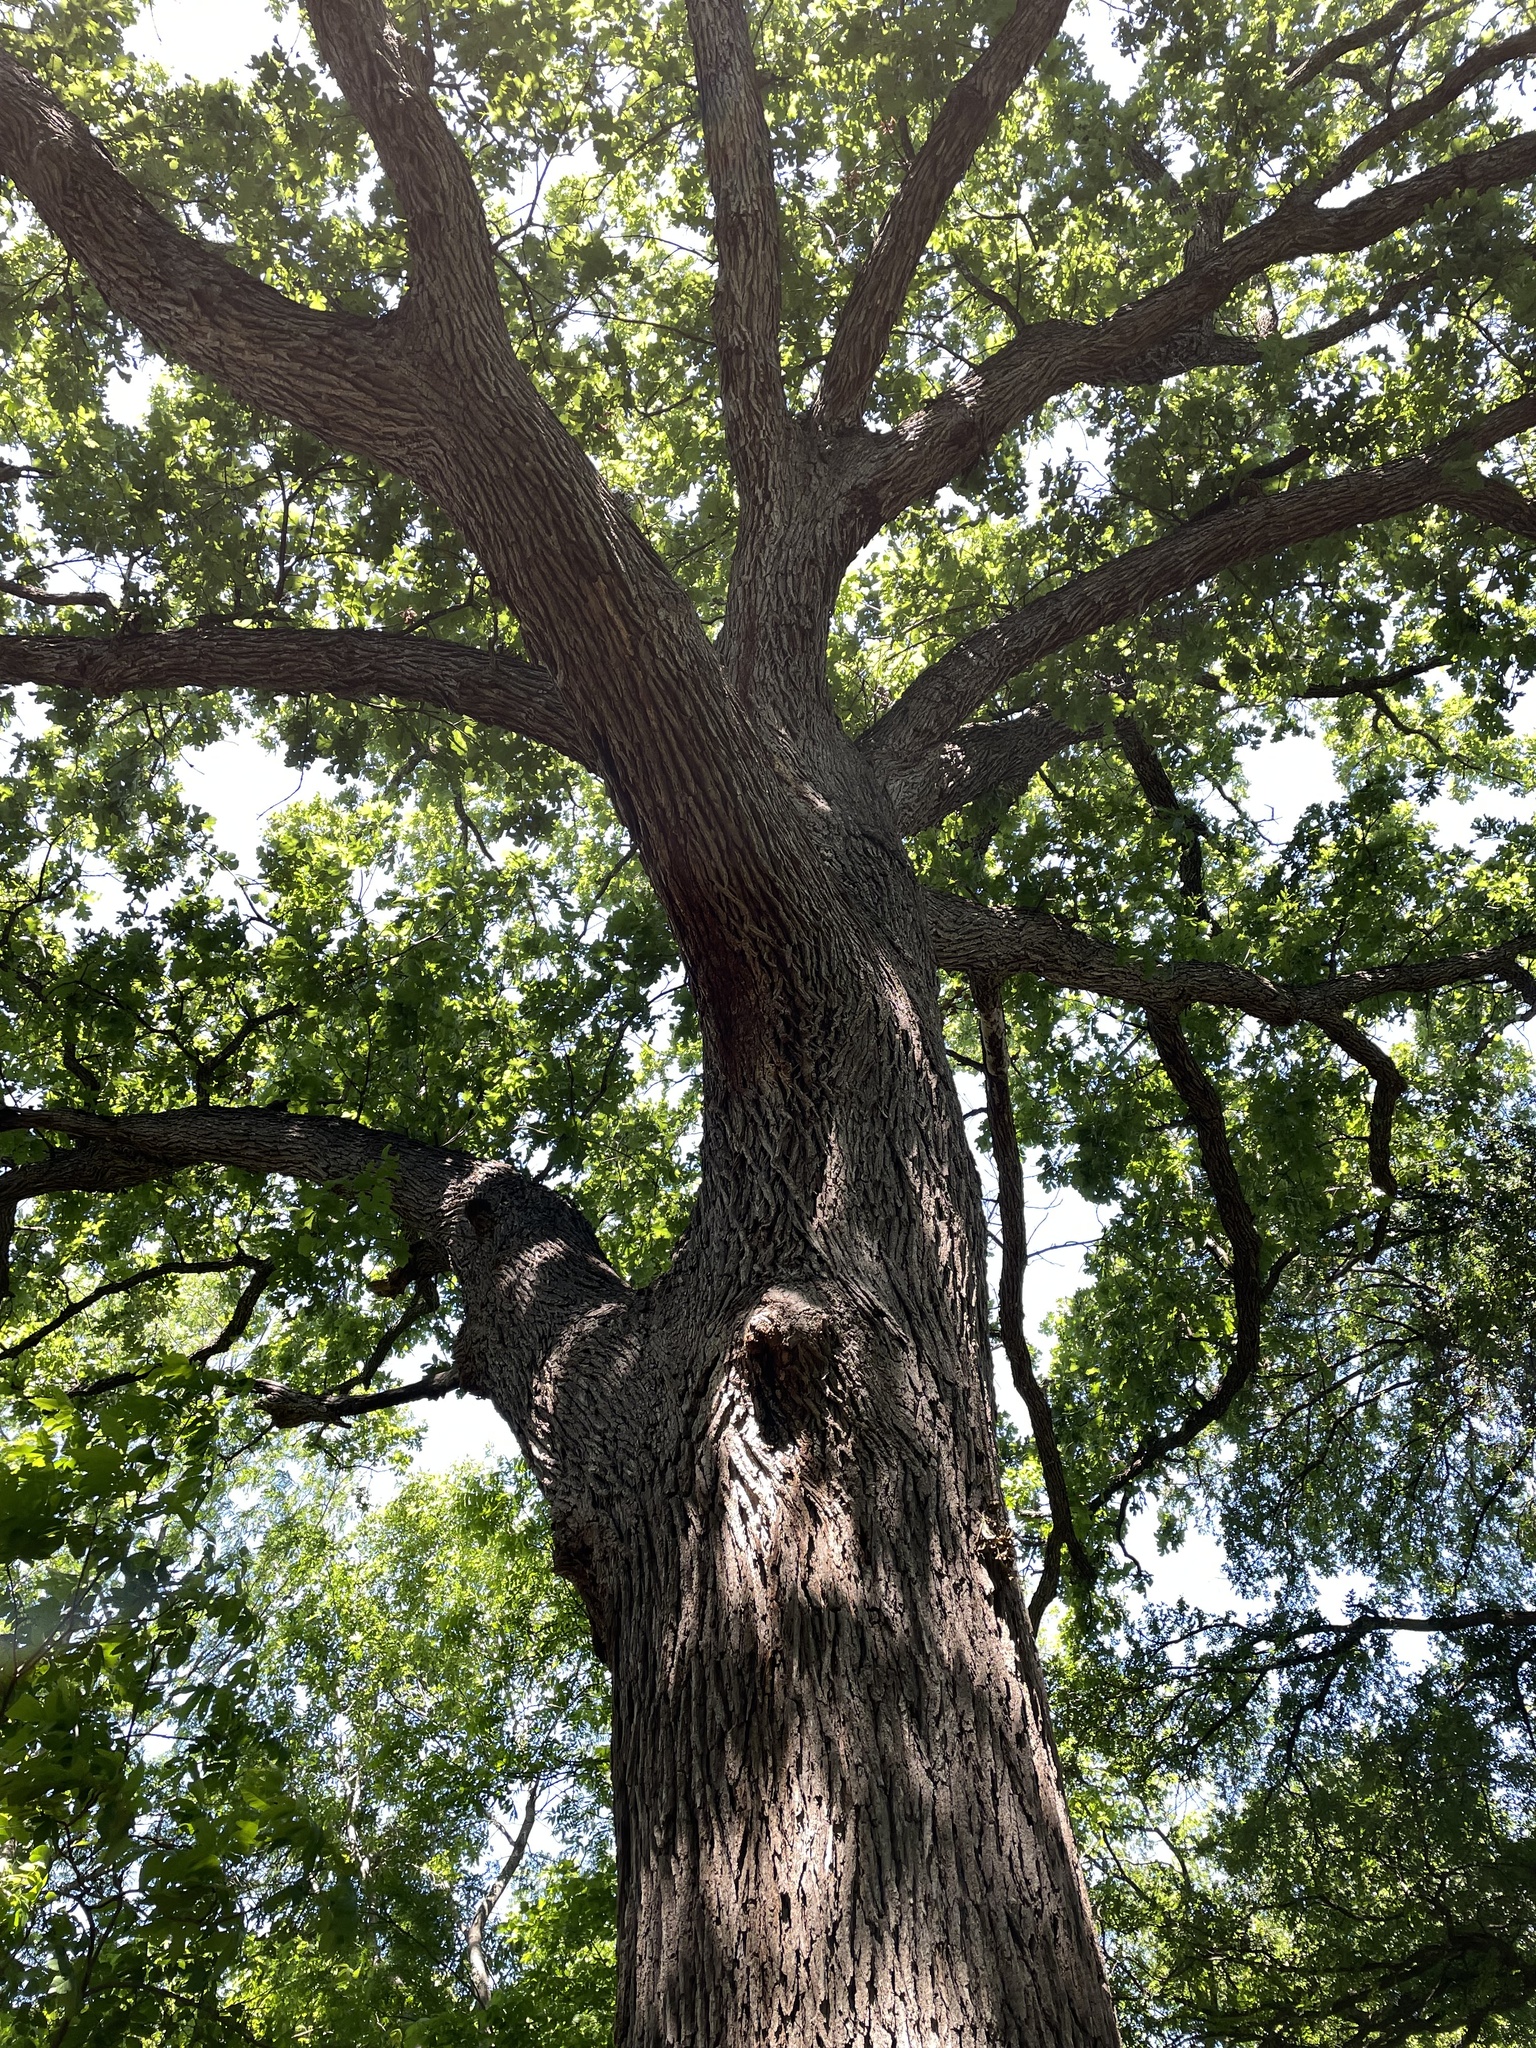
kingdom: Plantae
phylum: Tracheophyta
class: Magnoliopsida
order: Fagales
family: Fagaceae
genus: Quercus
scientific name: Quercus macrocarpa
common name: Bur oak
